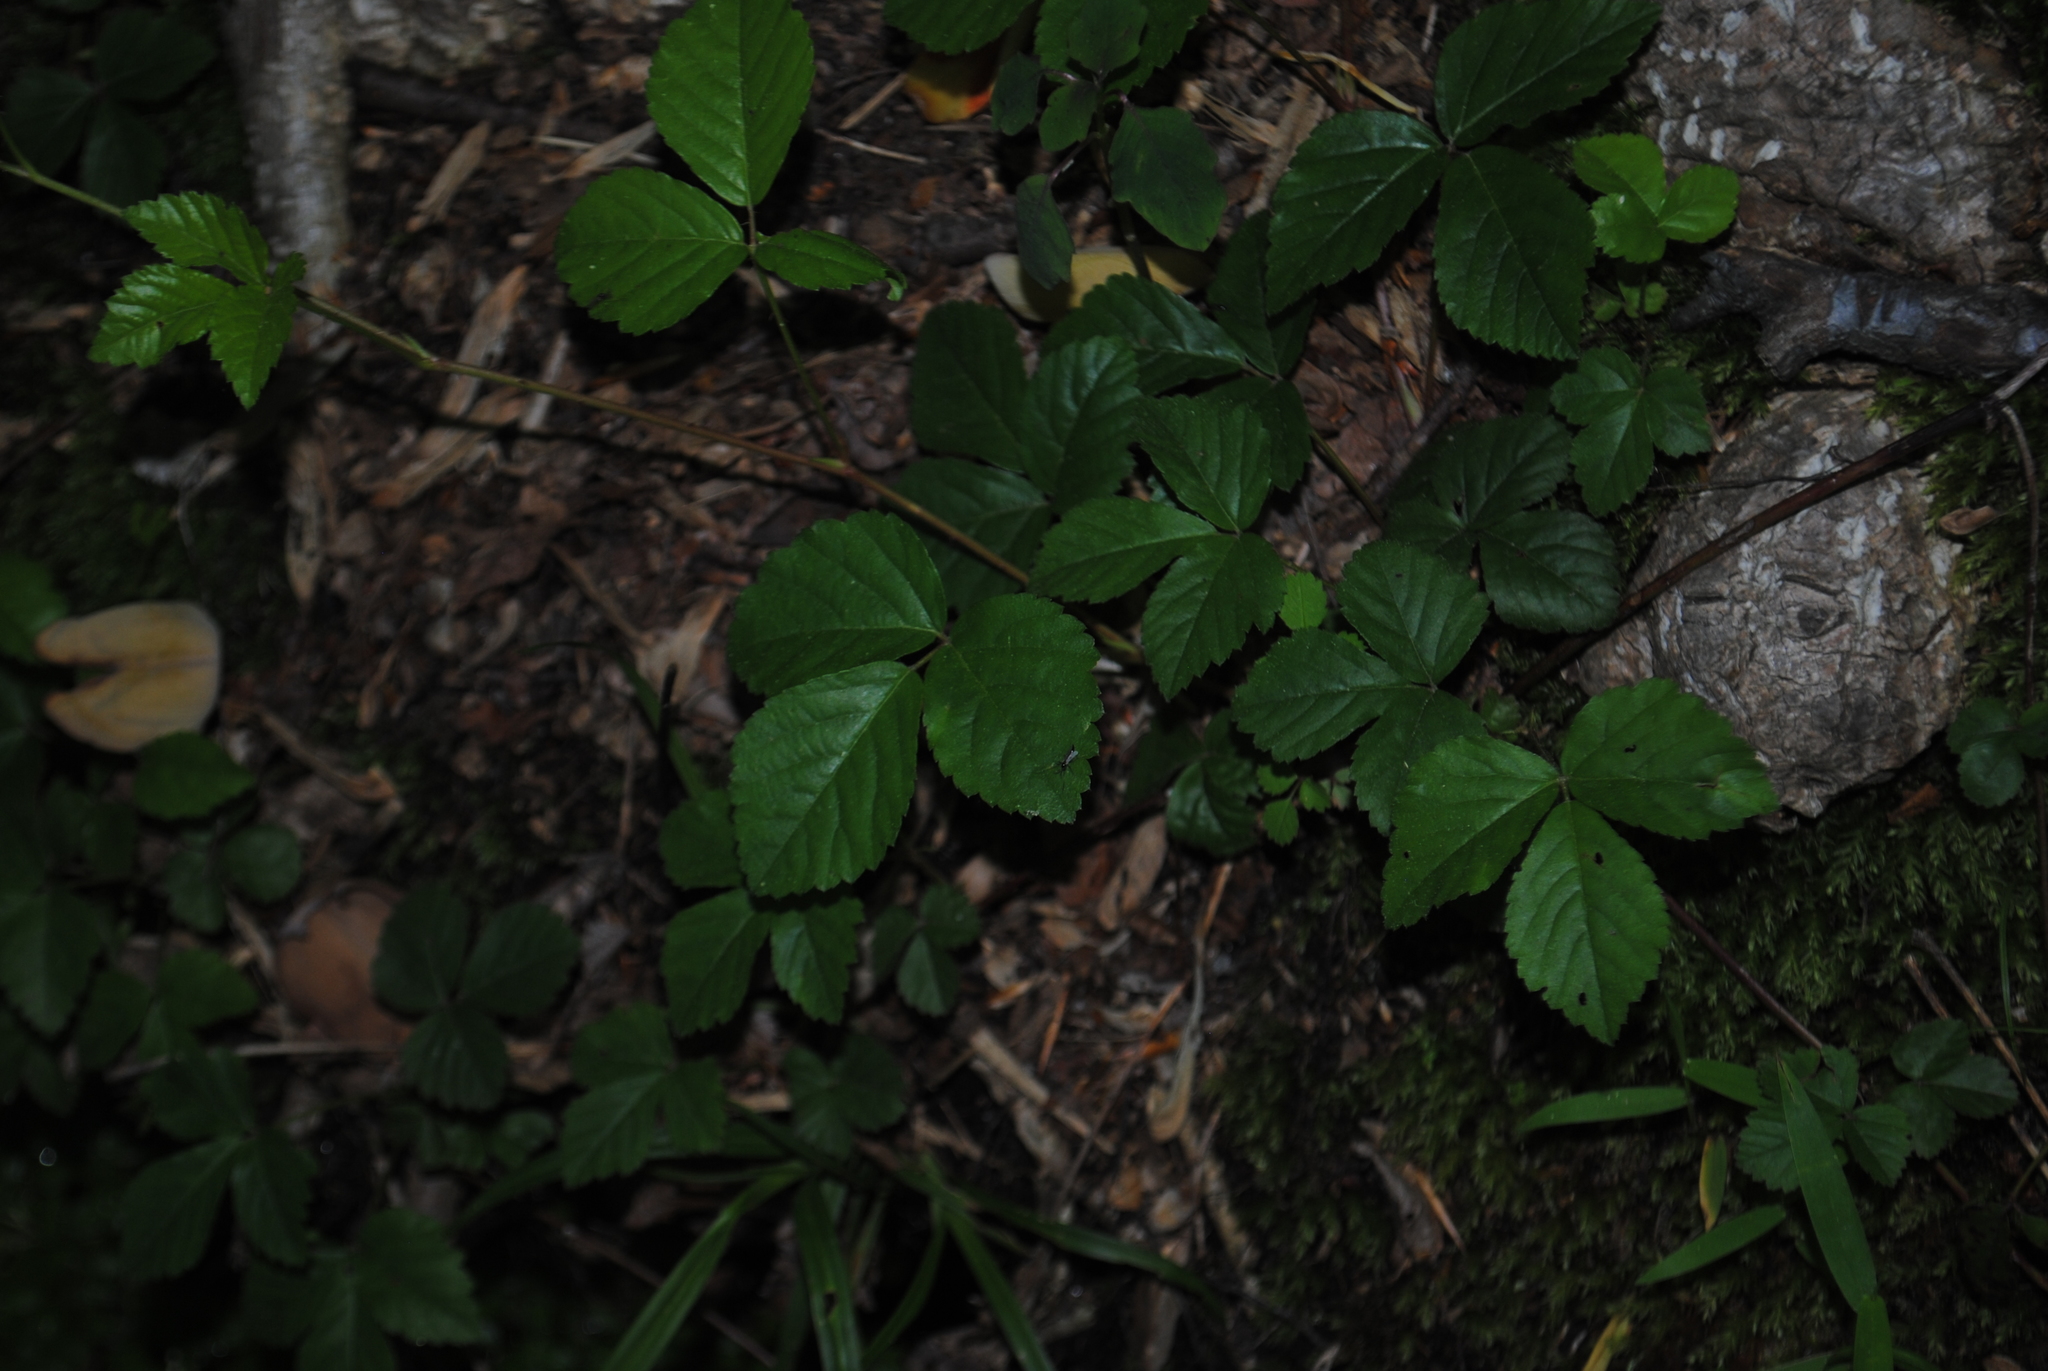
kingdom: Plantae
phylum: Tracheophyta
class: Magnoliopsida
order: Rosales
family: Rosaceae
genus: Rubus
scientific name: Rubus hispidus
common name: Running blackberry
